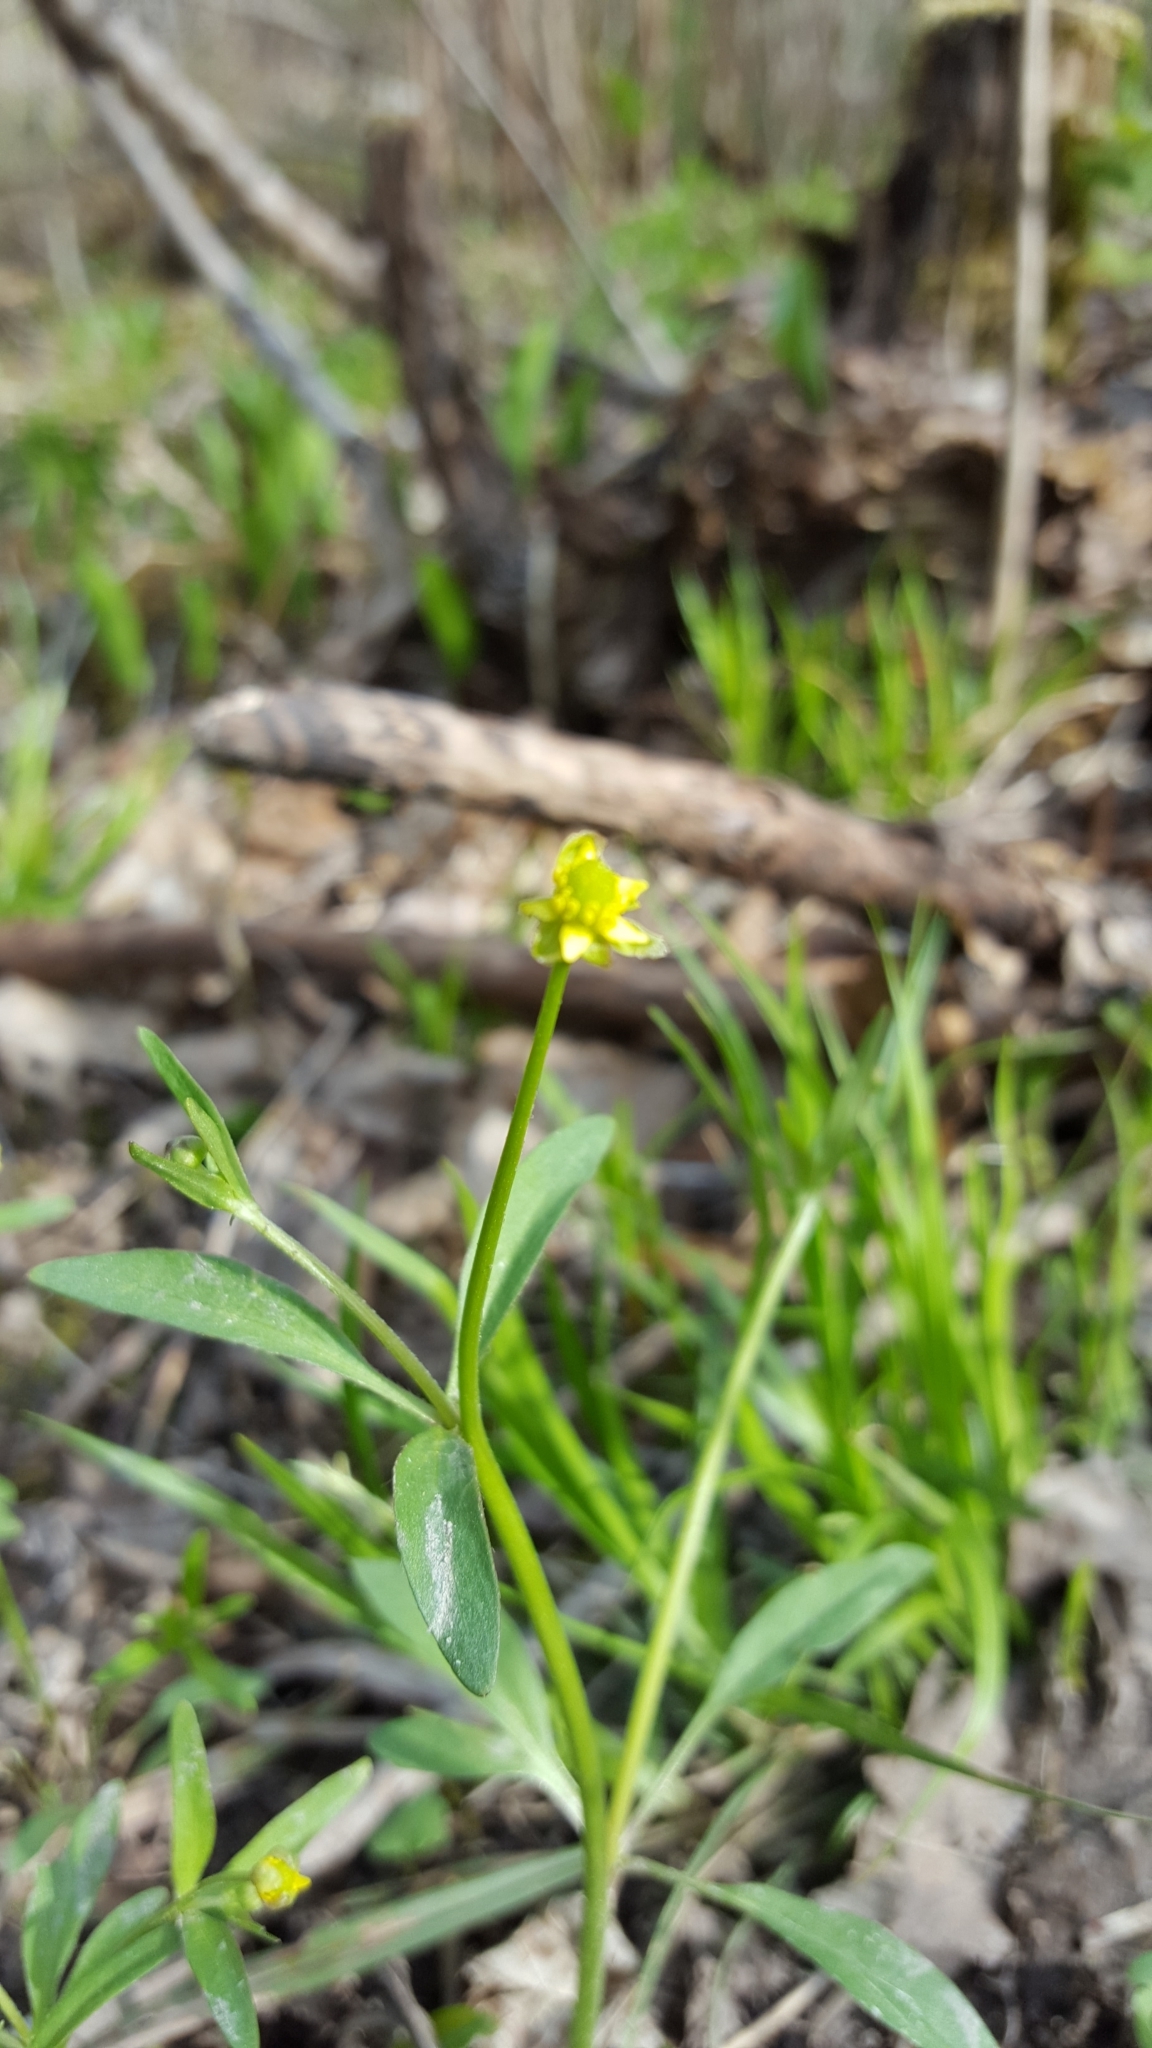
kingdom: Plantae
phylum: Tracheophyta
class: Magnoliopsida
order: Ranunculales
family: Ranunculaceae
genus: Ranunculus
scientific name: Ranunculus abortivus
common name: Early wood buttercup
